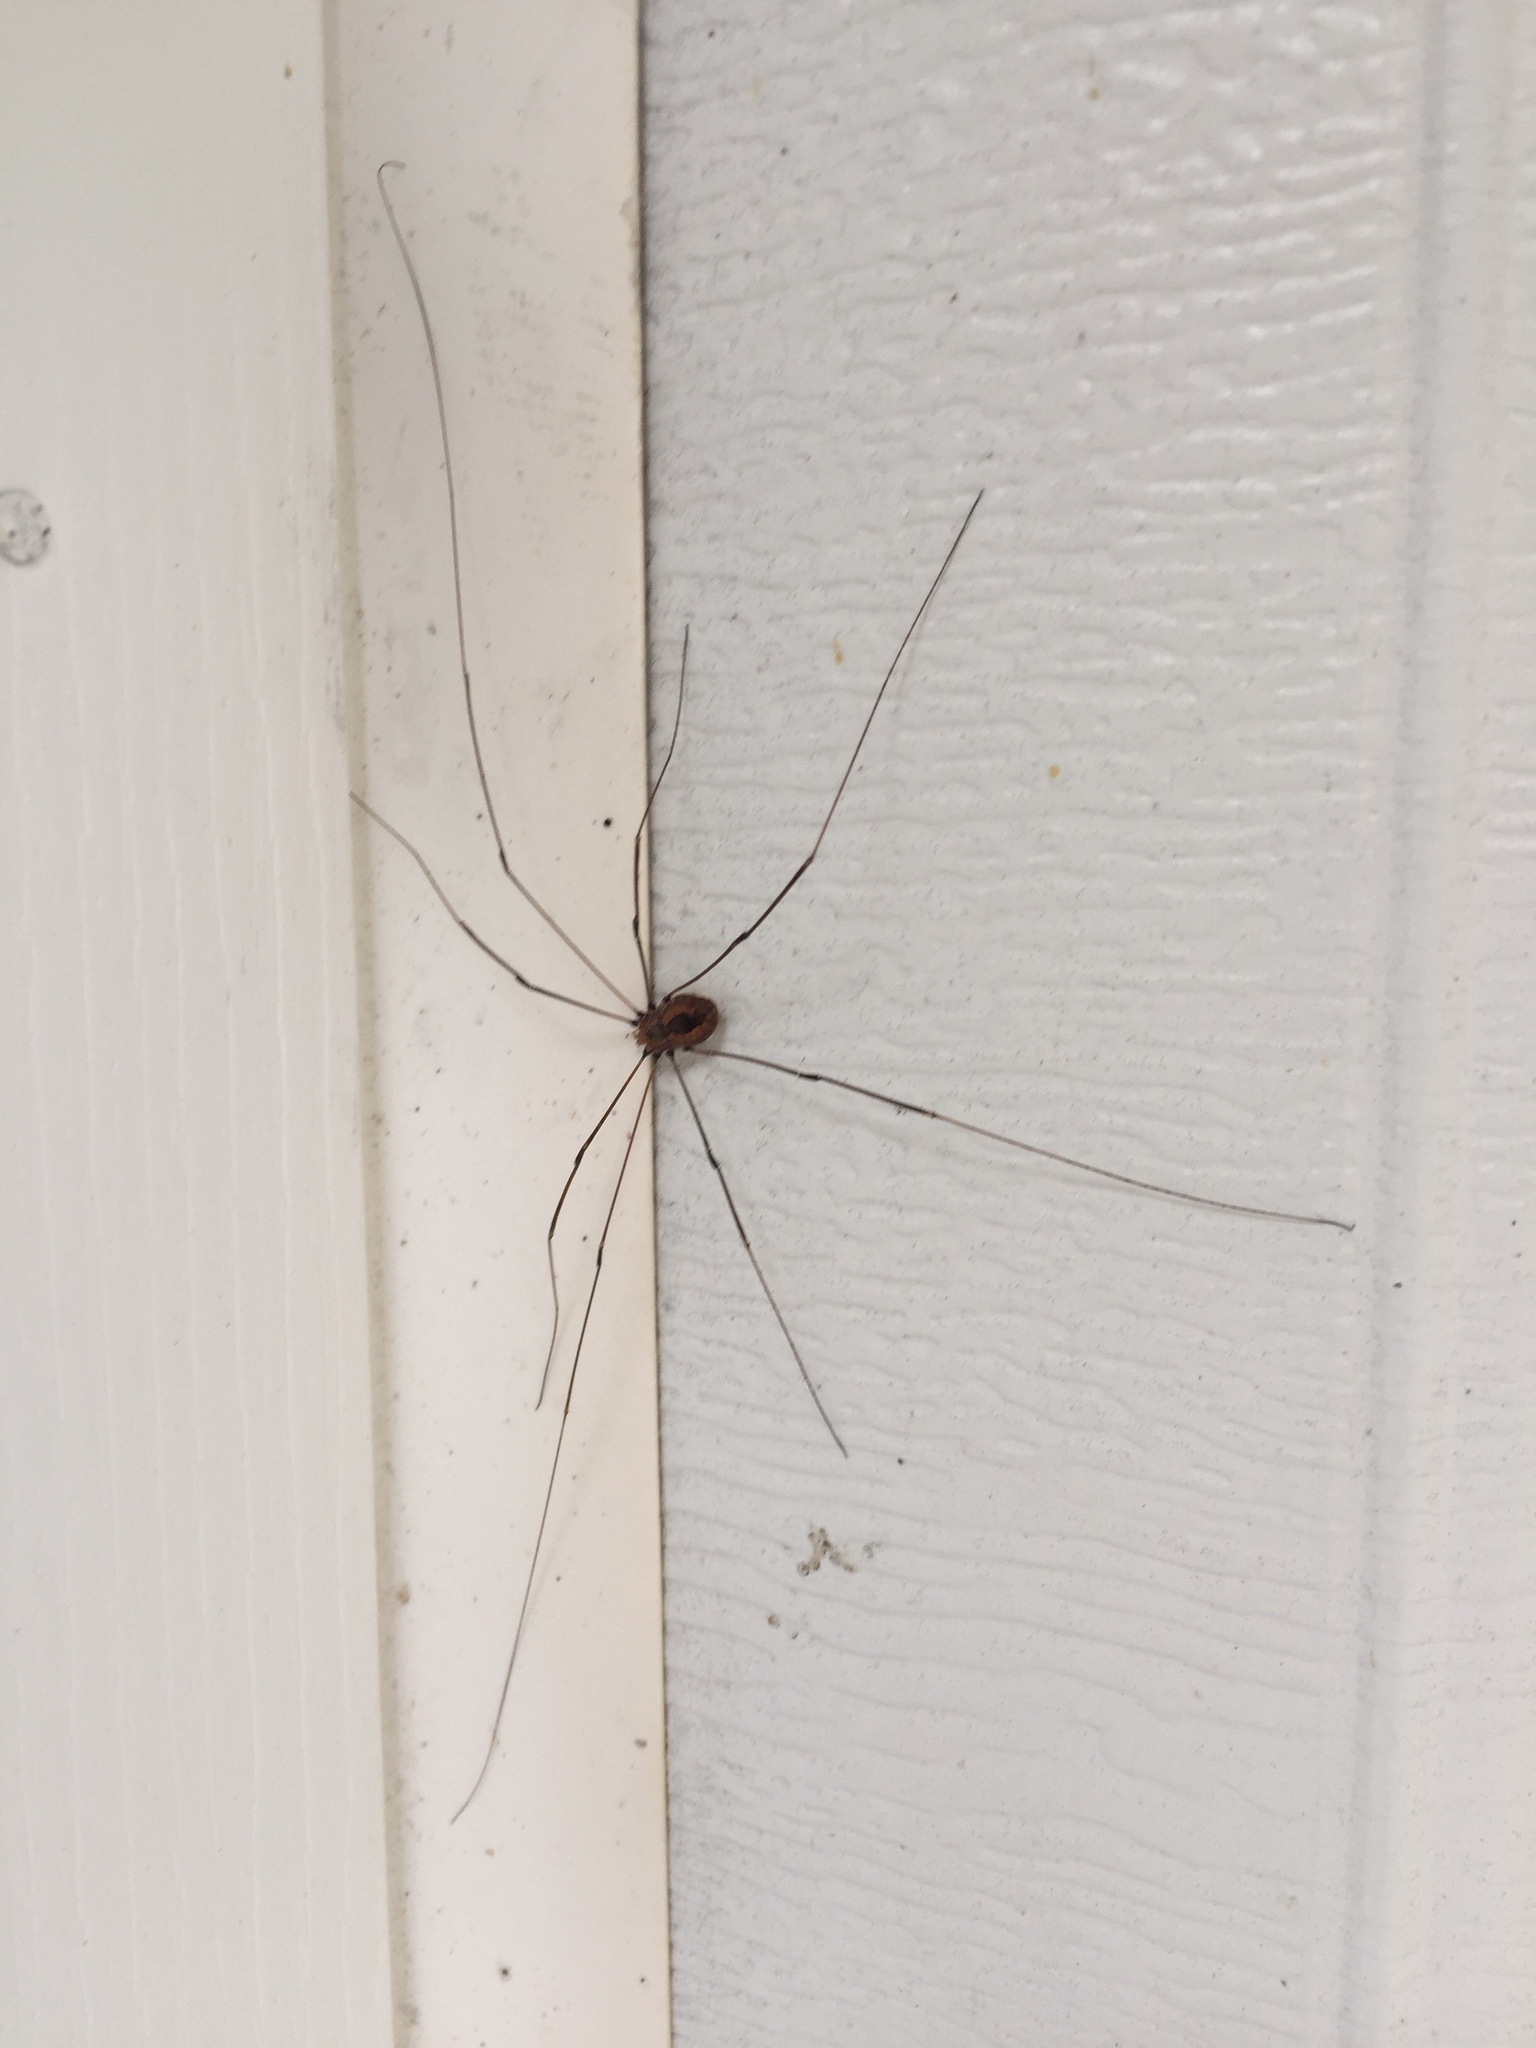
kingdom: Animalia
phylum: Arthropoda
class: Arachnida
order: Opiliones
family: Sclerosomatidae
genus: Leiobunum
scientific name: Leiobunum vittatum
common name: Eastern harvestman
